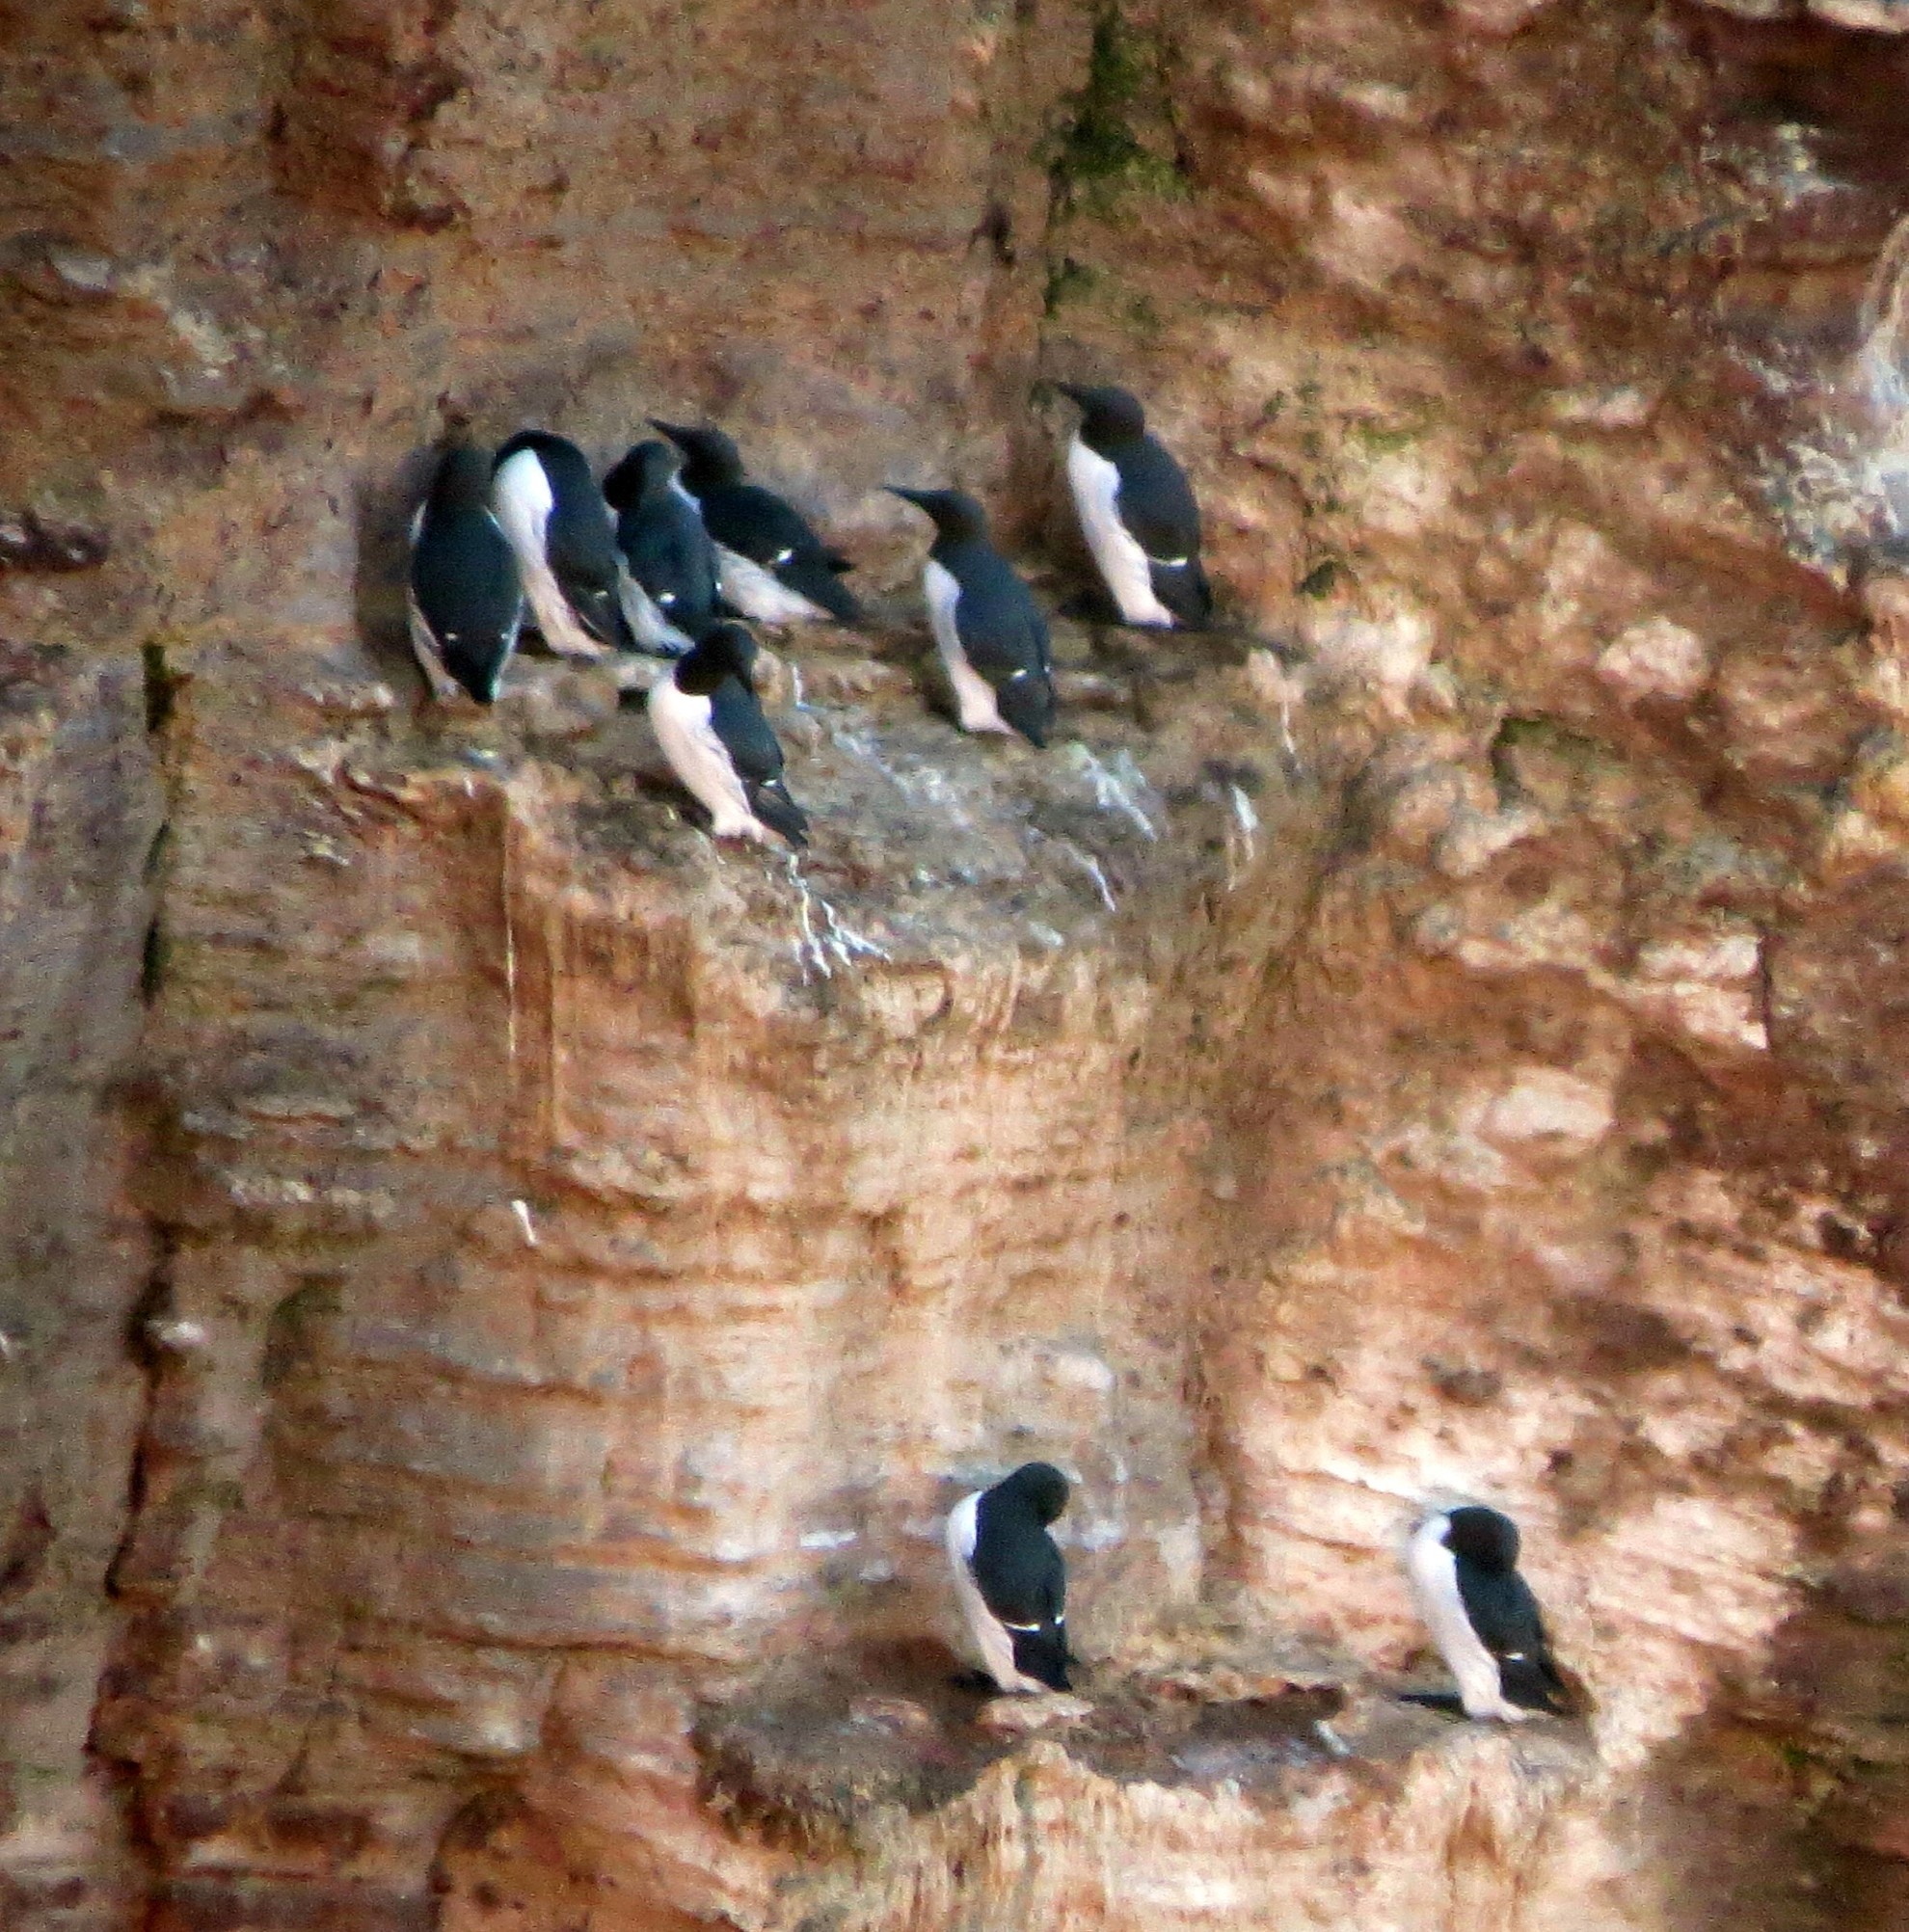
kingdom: Animalia
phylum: Chordata
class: Aves
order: Charadriiformes
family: Alcidae
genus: Uria
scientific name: Uria aalge
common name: Common murre
